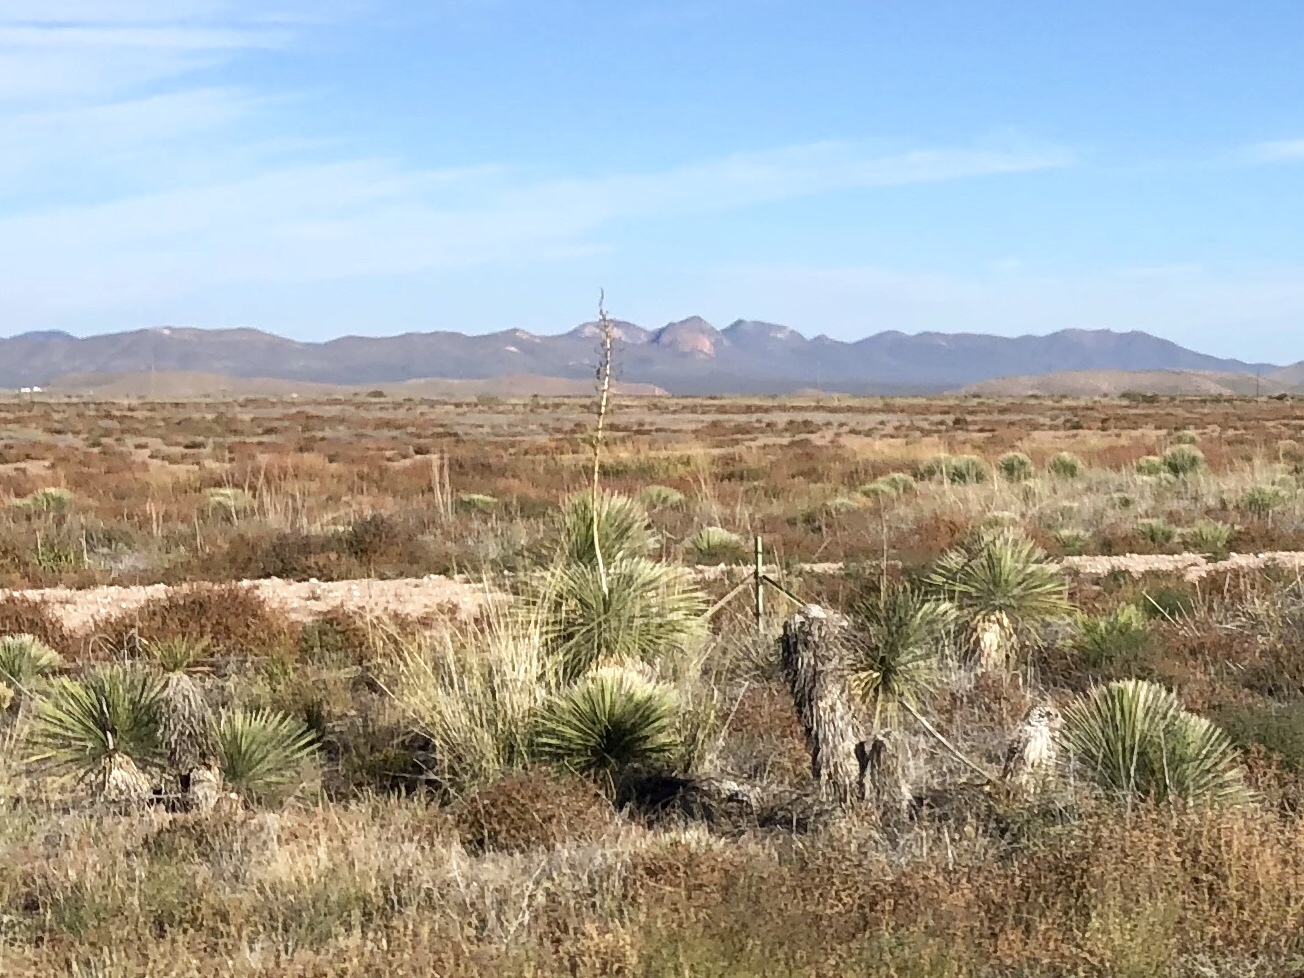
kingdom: Plantae
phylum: Tracheophyta
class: Liliopsida
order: Asparagales
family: Asparagaceae
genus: Yucca
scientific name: Yucca elata
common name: Palmella
